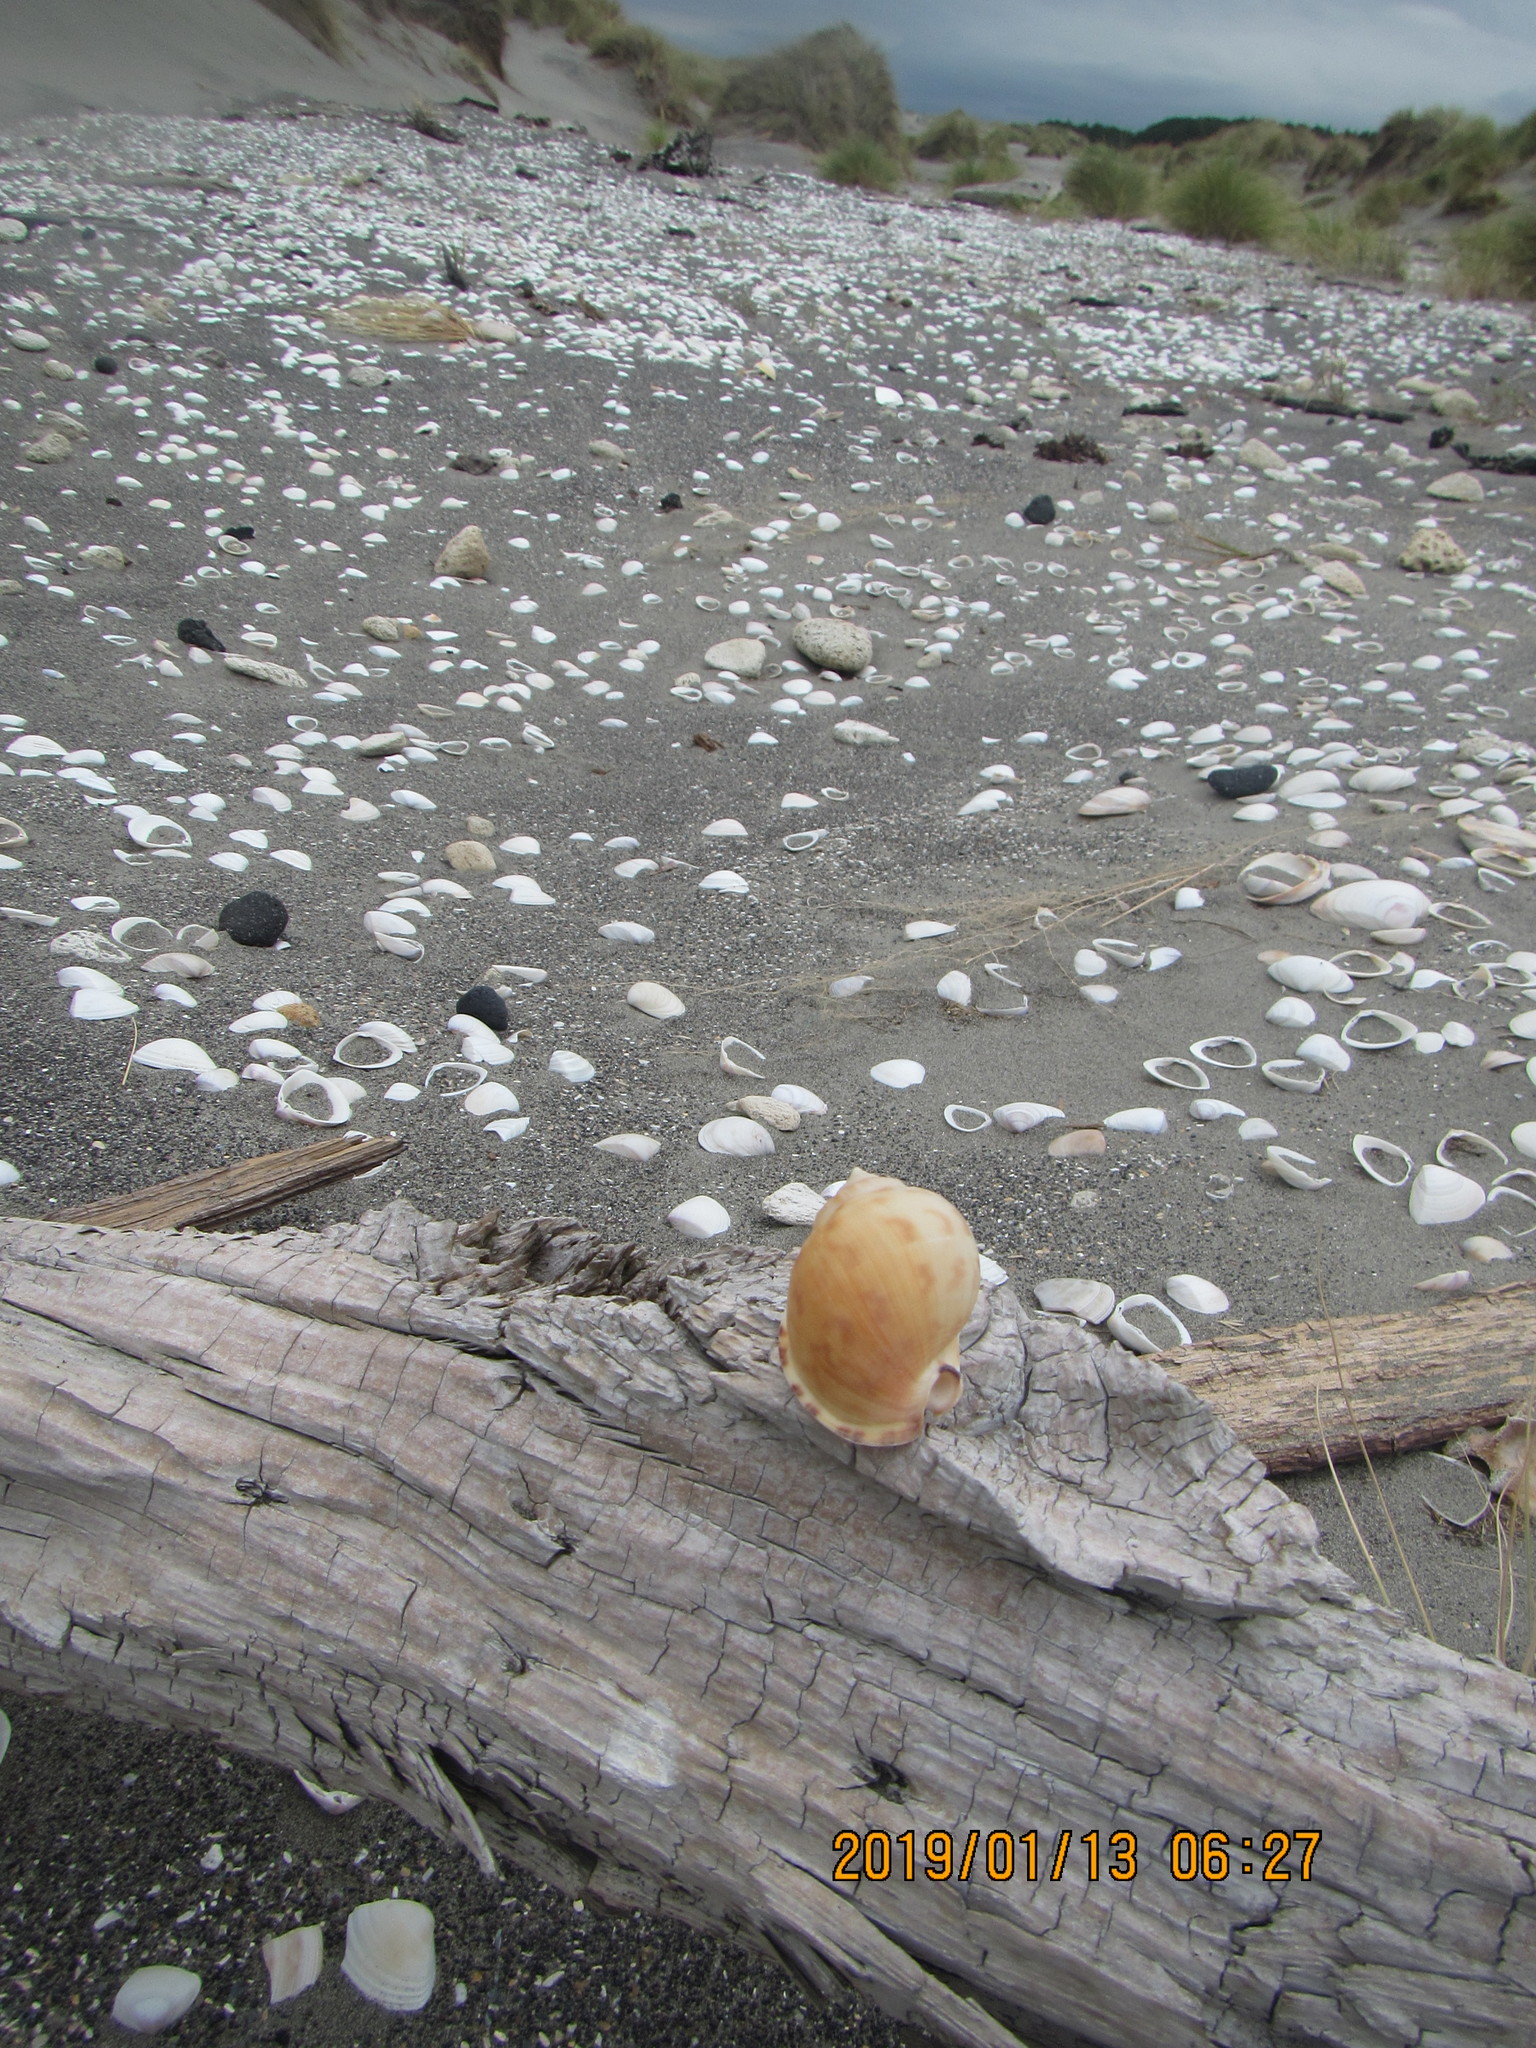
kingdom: Animalia
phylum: Mollusca
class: Gastropoda
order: Littorinimorpha
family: Cassidae
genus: Semicassis
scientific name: Semicassis pyrum
